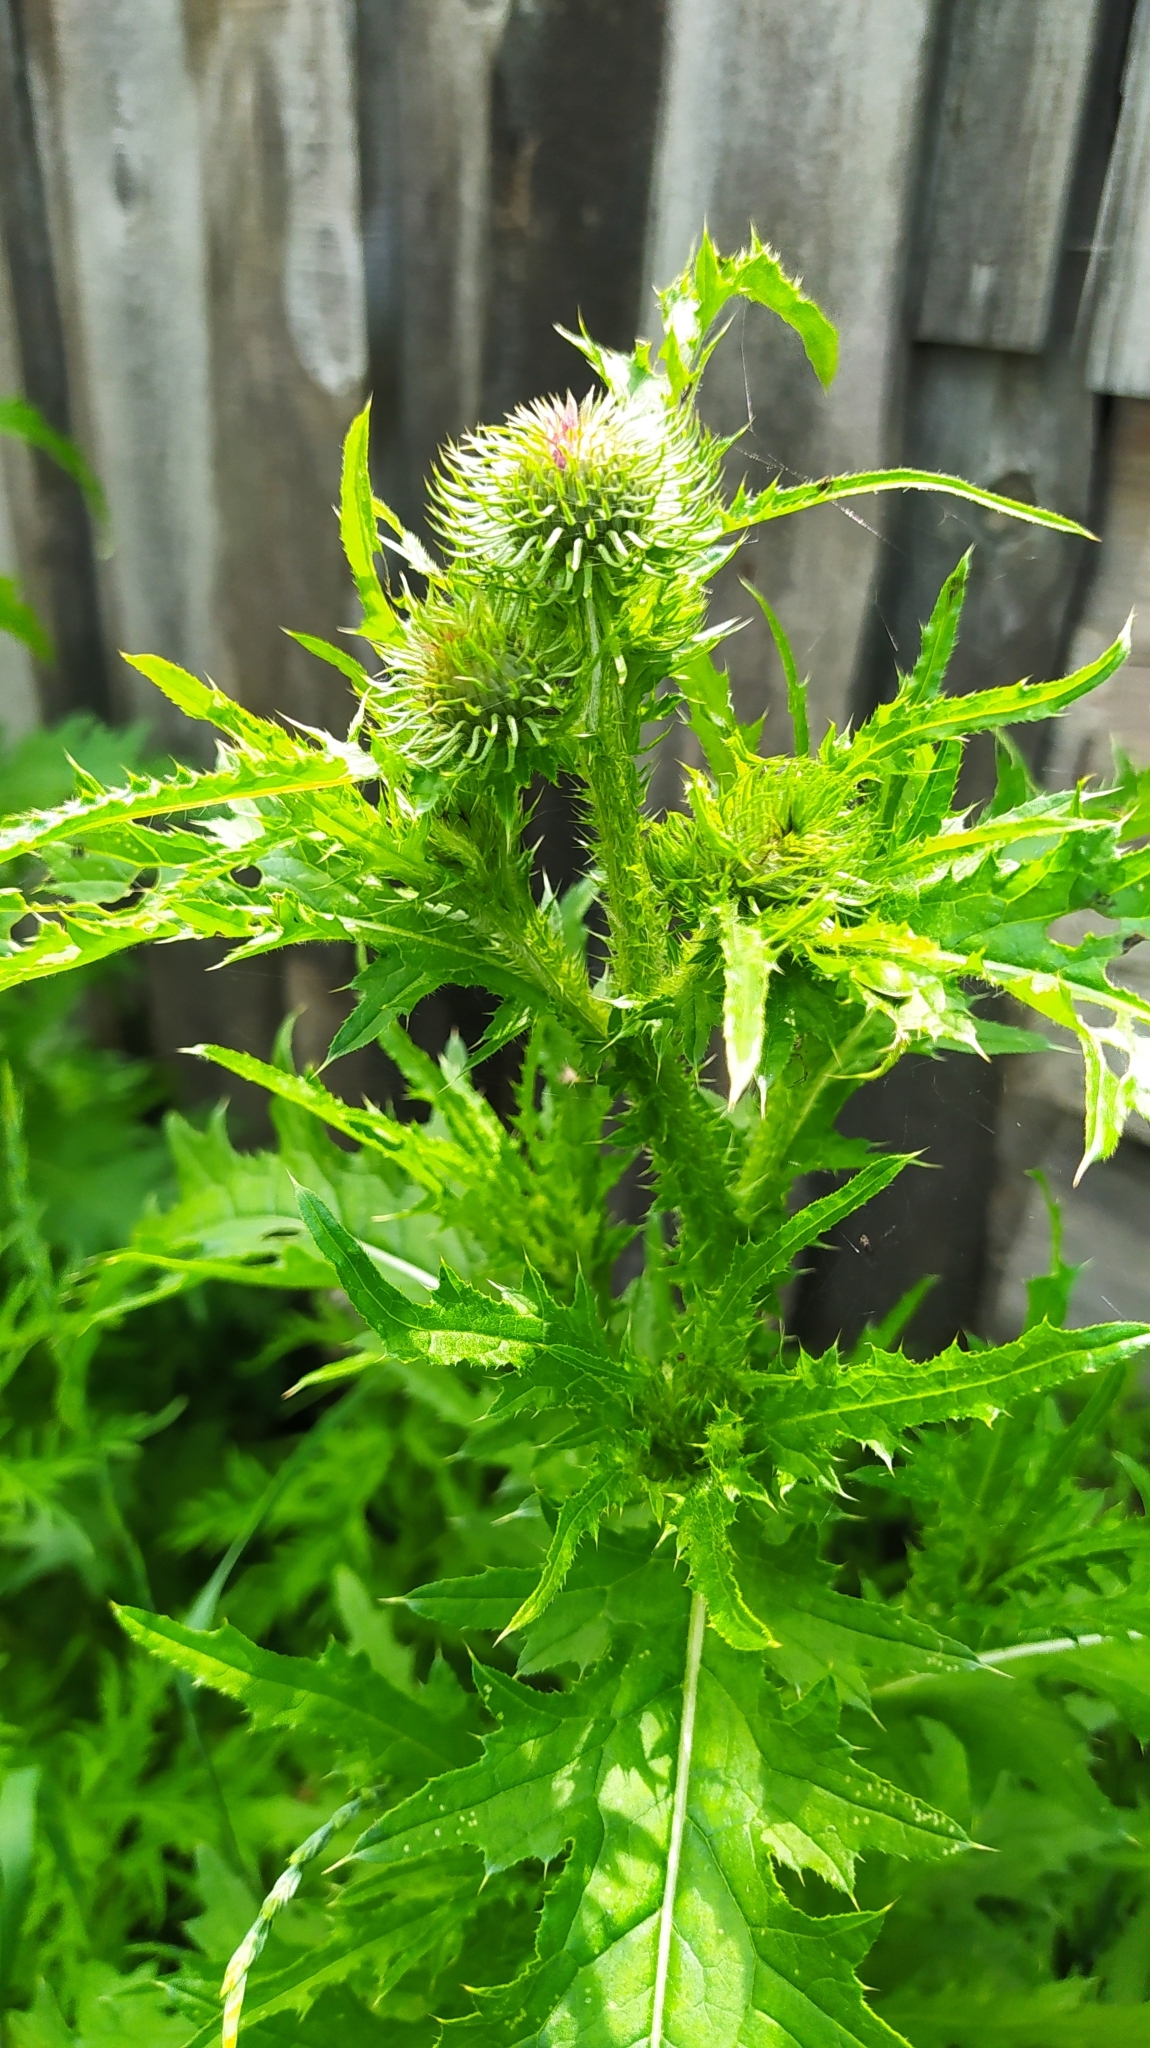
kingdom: Plantae
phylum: Tracheophyta
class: Magnoliopsida
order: Asterales
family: Asteraceae
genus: Carduus
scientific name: Carduus crispus
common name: Welted thistle
